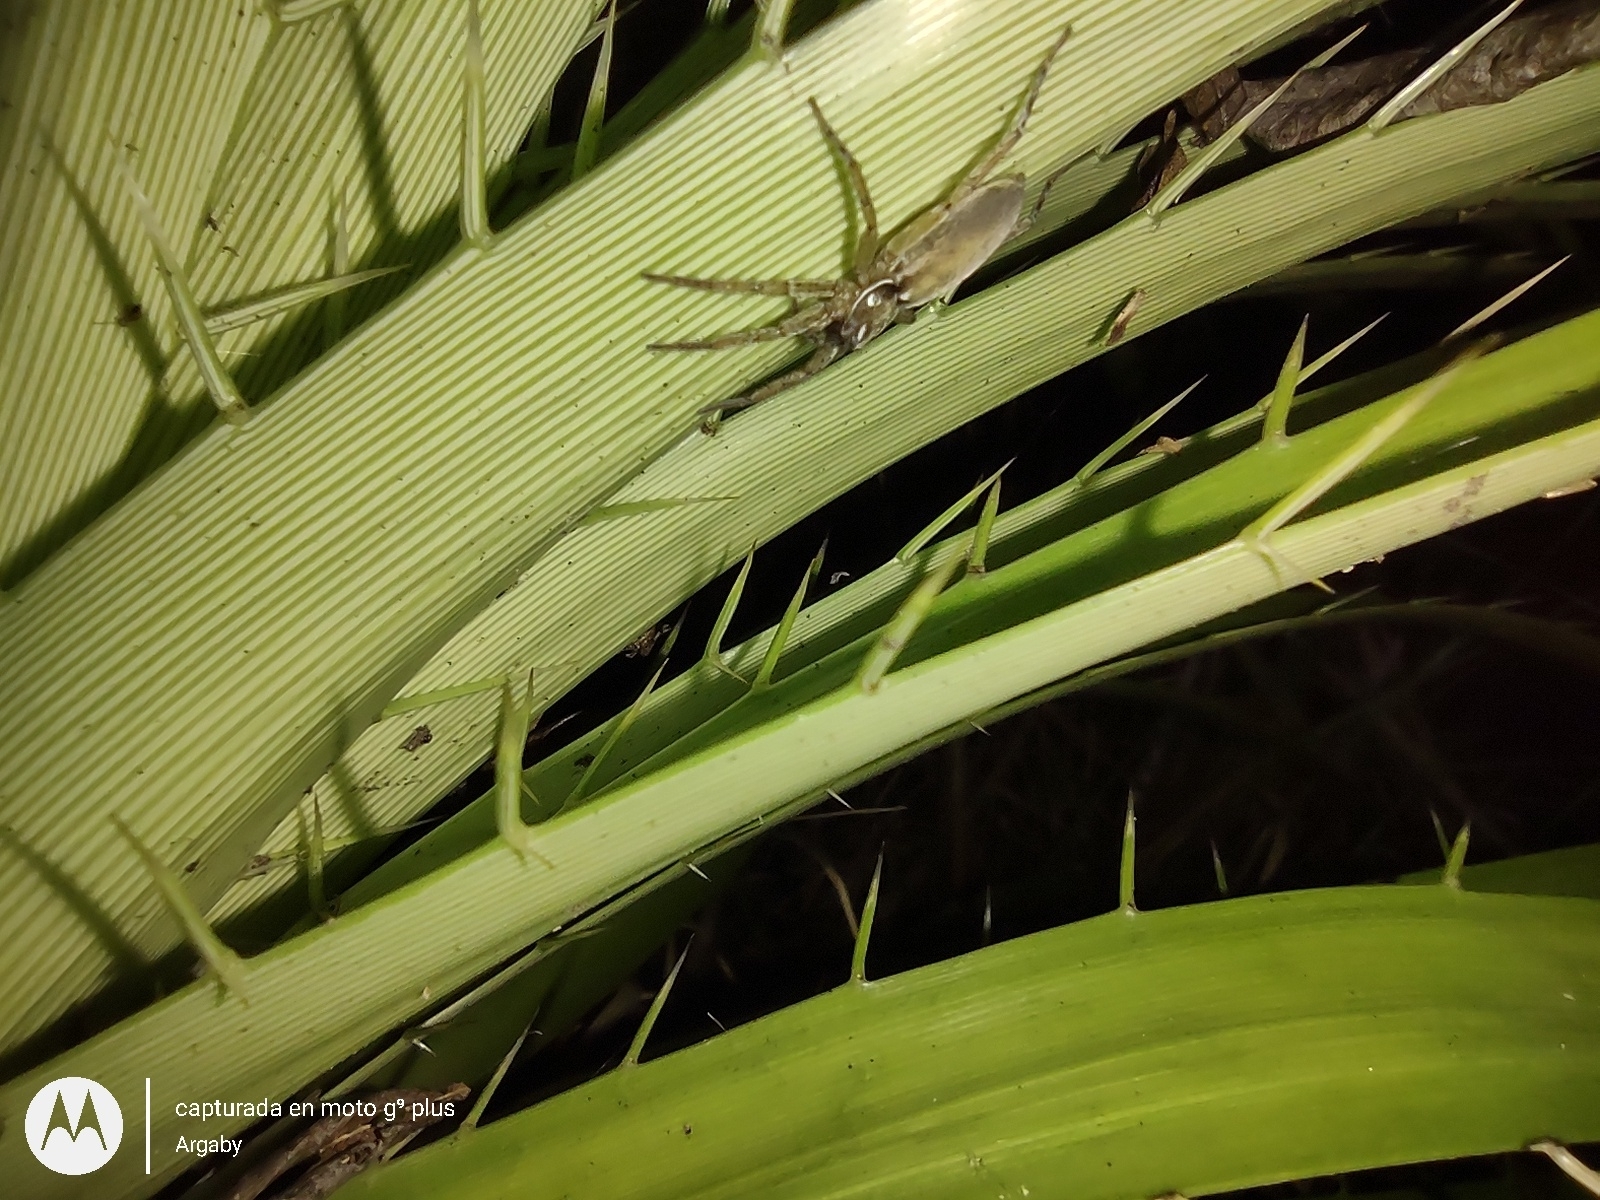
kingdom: Animalia
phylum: Arthropoda
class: Arachnida
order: Araneae
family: Anyphaenidae
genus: Arachosia
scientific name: Arachosia proseni
